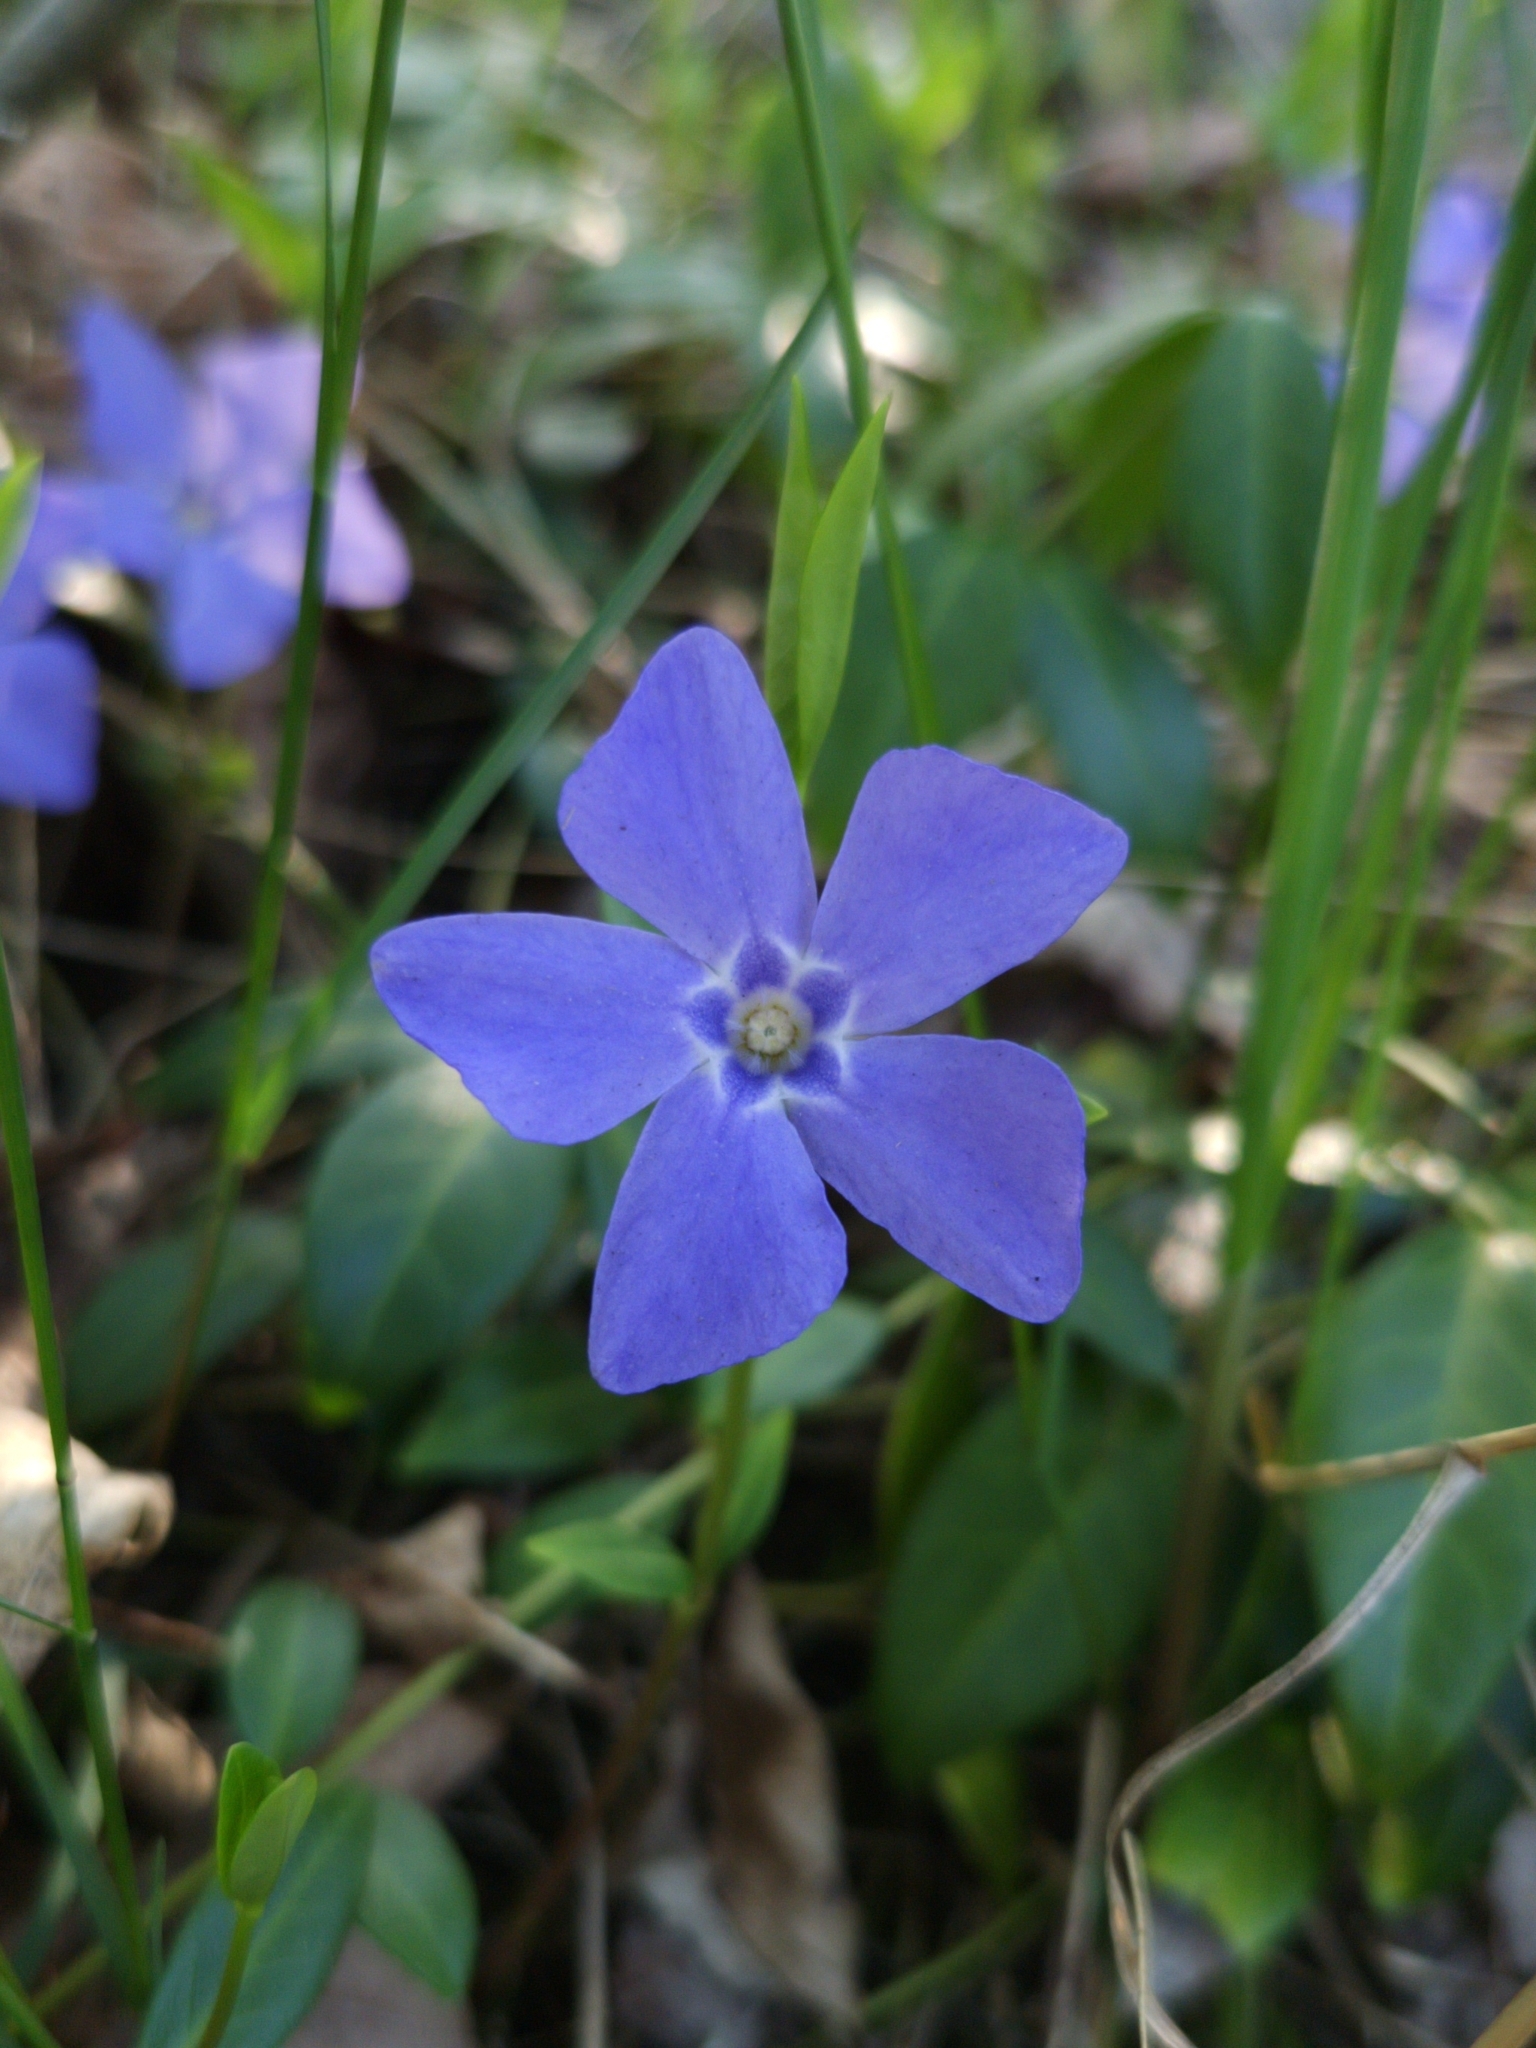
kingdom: Plantae
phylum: Tracheophyta
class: Magnoliopsida
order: Gentianales
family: Apocynaceae
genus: Vinca
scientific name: Vinca minor
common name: Lesser periwinkle
